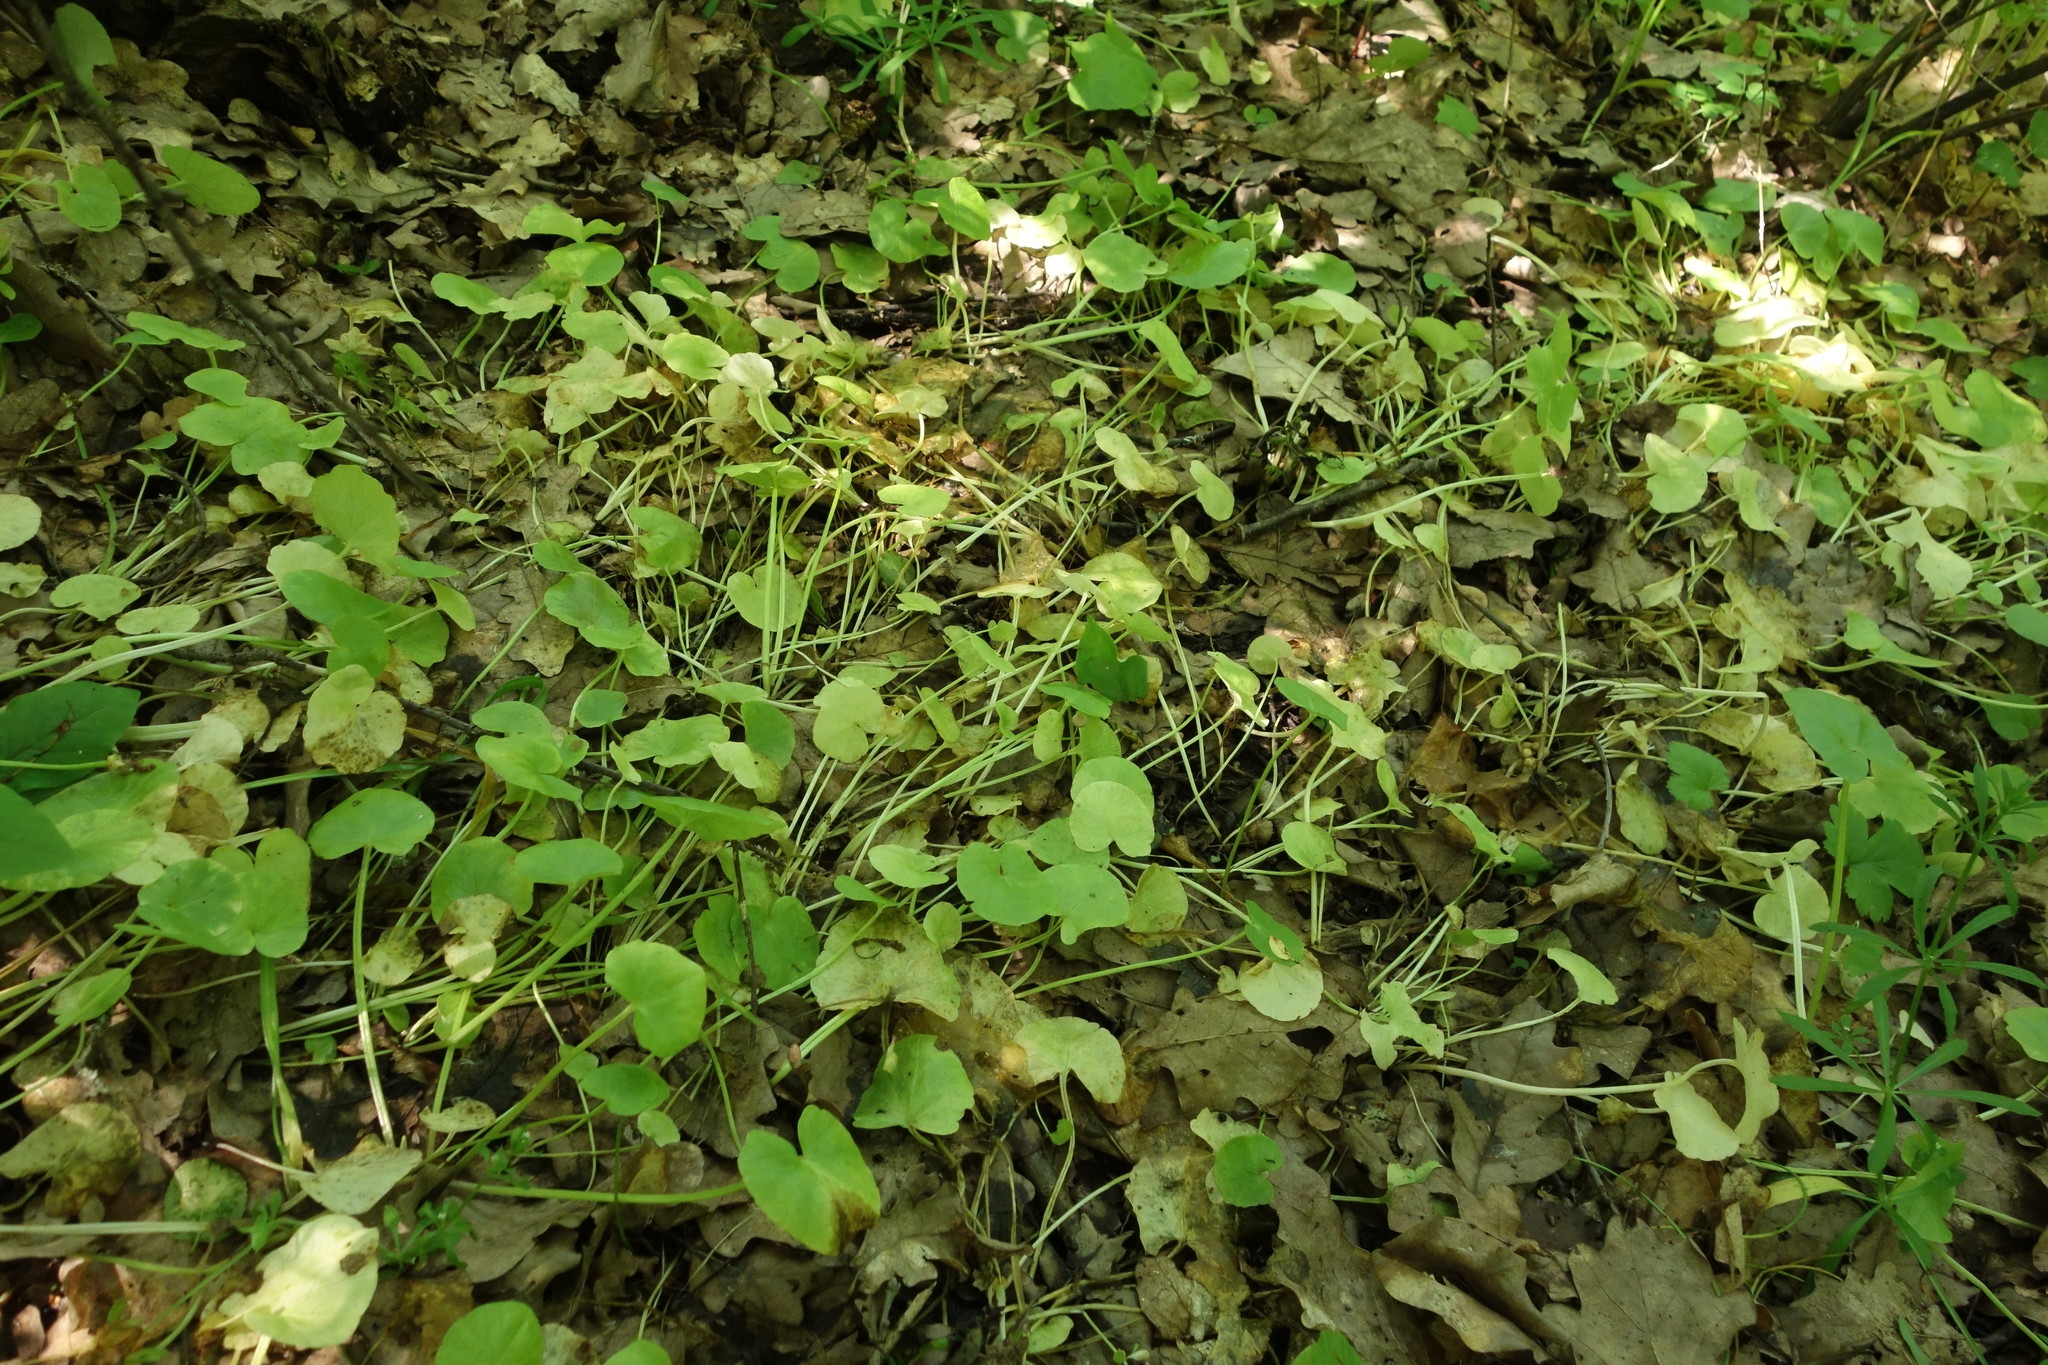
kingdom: Plantae
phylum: Tracheophyta
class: Magnoliopsida
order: Ranunculales
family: Ranunculaceae
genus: Ficaria
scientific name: Ficaria verna
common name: Lesser celandine
